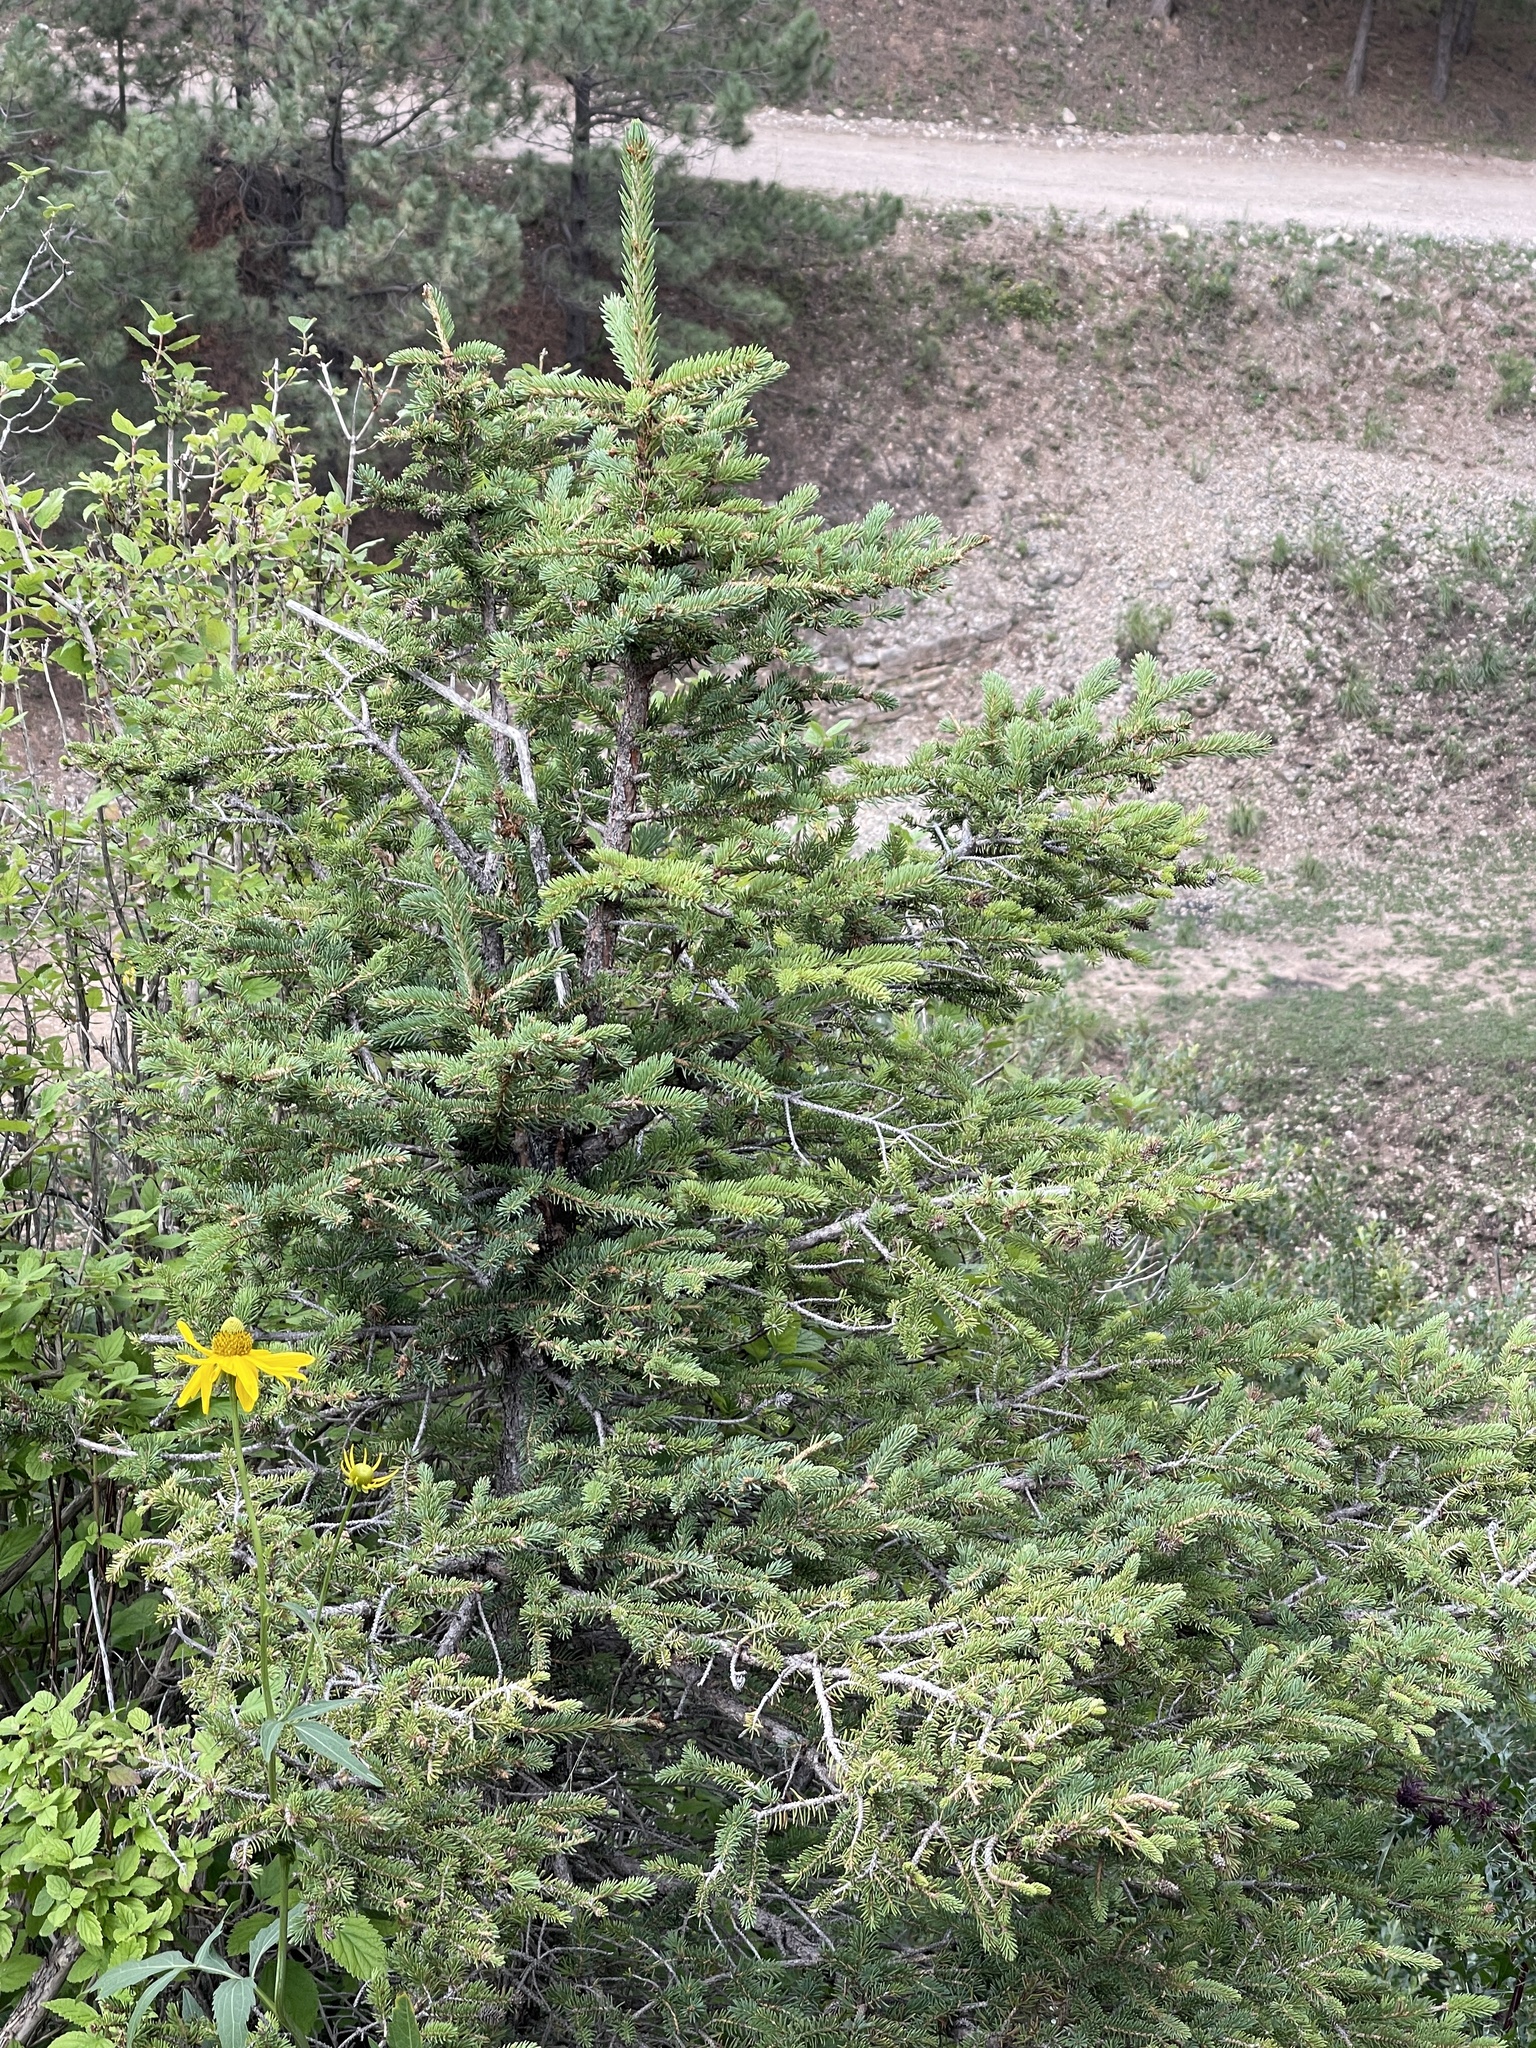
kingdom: Plantae
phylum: Tracheophyta
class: Pinopsida
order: Pinales
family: Pinaceae
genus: Picea
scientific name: Picea engelmannii
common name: Engelmann spruce
